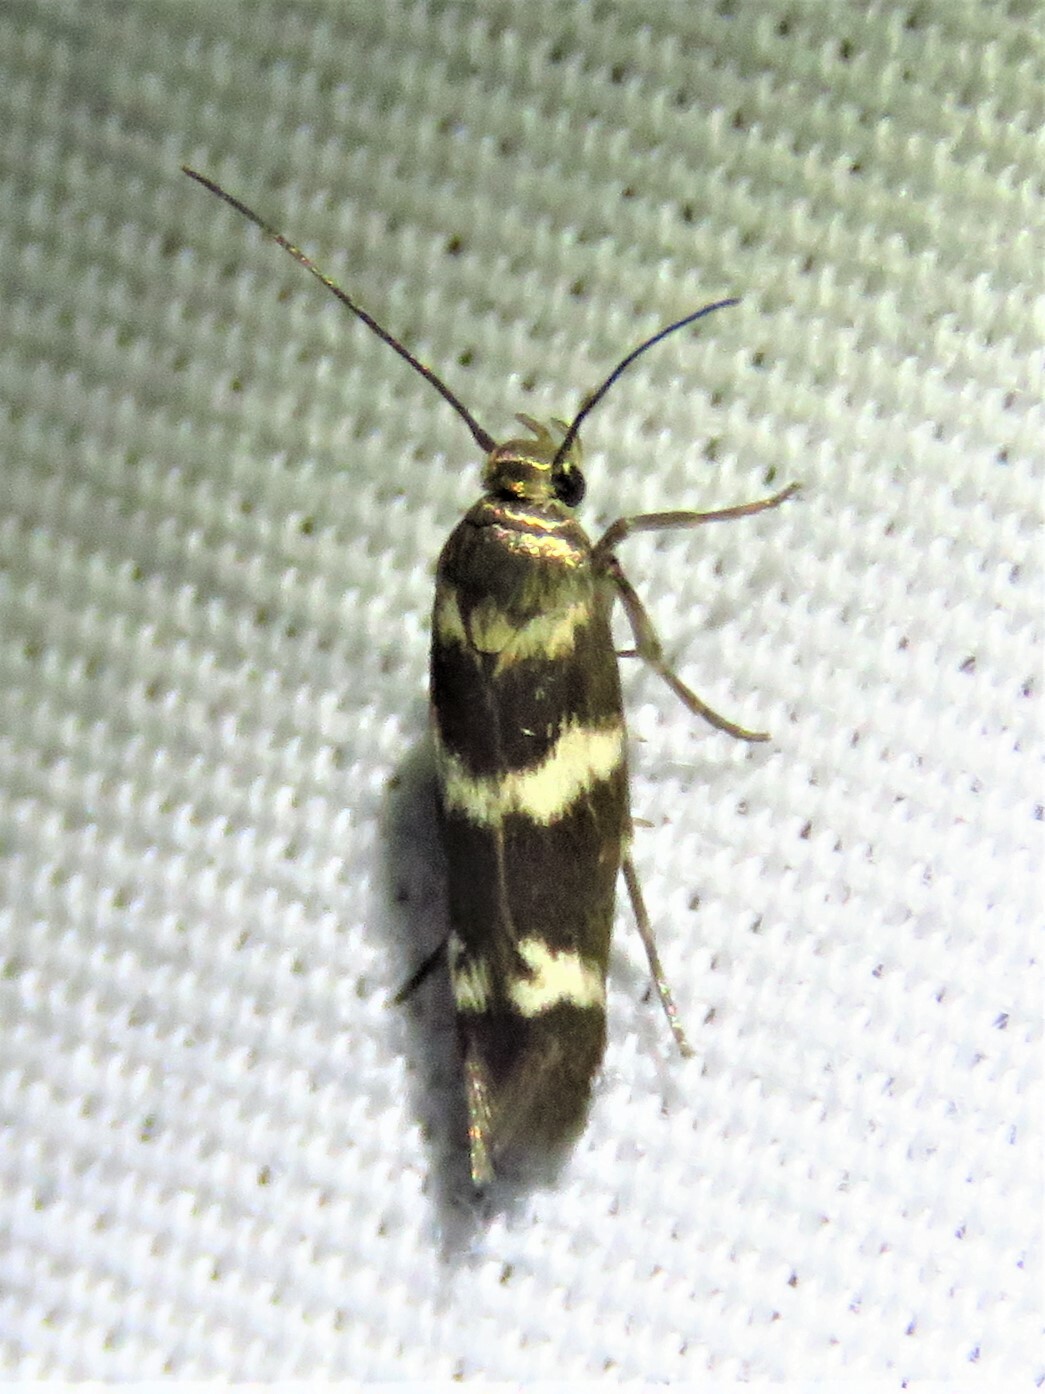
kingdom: Animalia
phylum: Arthropoda
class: Insecta
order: Lepidoptera
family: Scythrididae
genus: Scythris
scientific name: Scythris trivinctella
